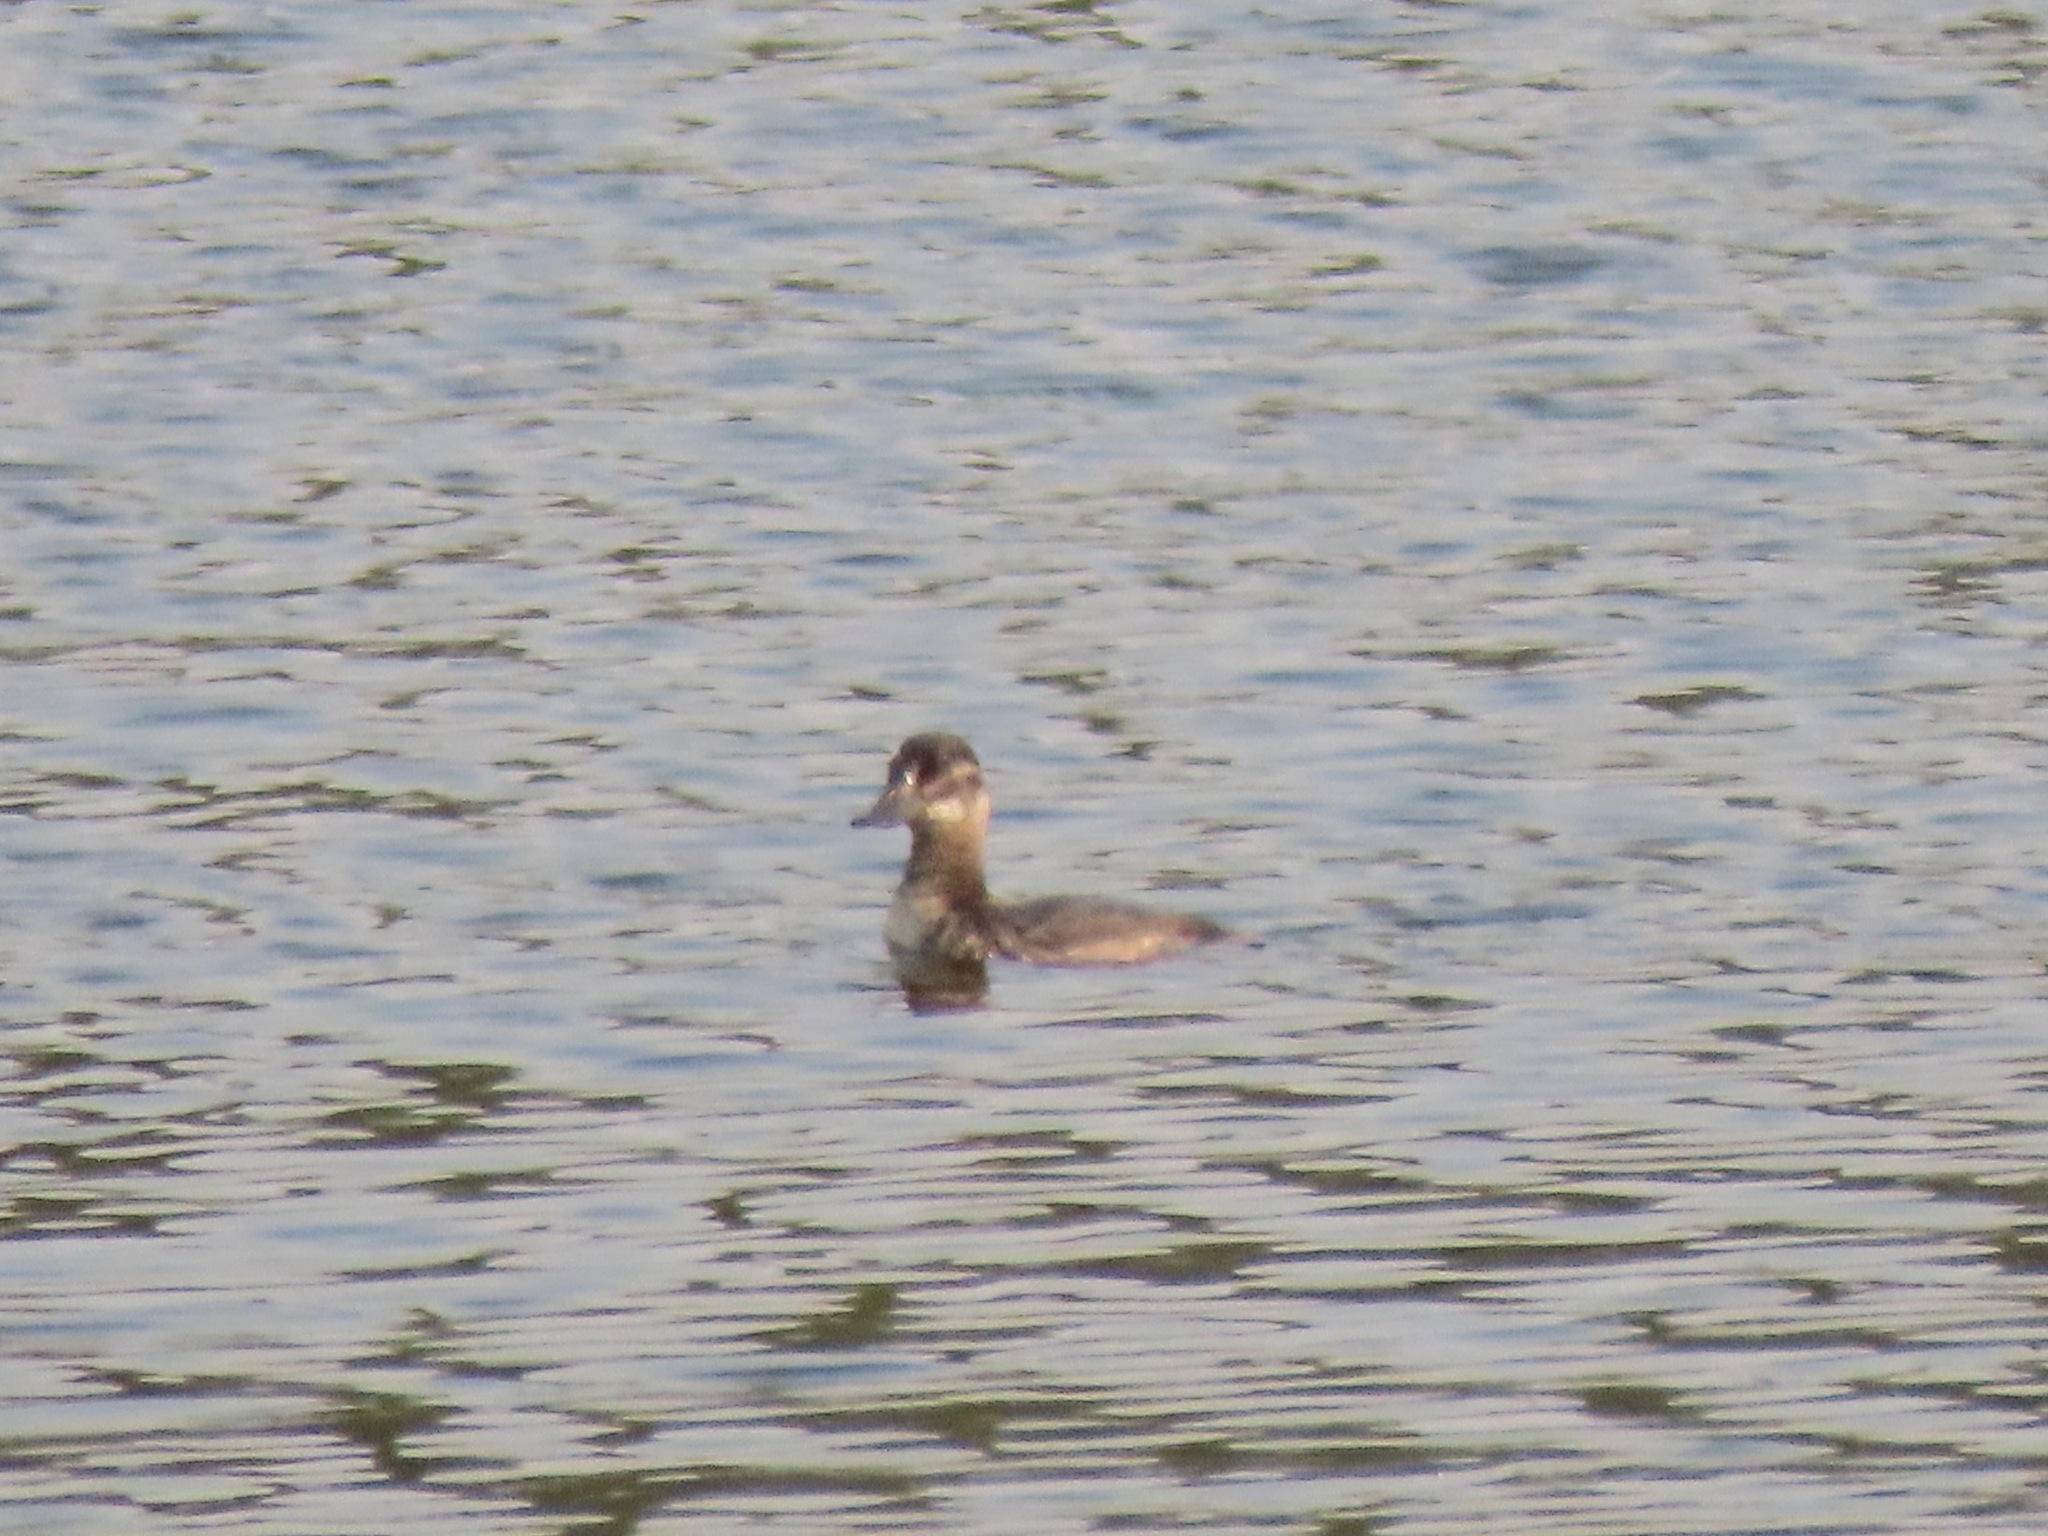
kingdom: Animalia
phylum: Chordata
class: Aves
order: Anseriformes
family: Anatidae
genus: Oxyura
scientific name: Oxyura jamaicensis
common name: Ruddy duck
